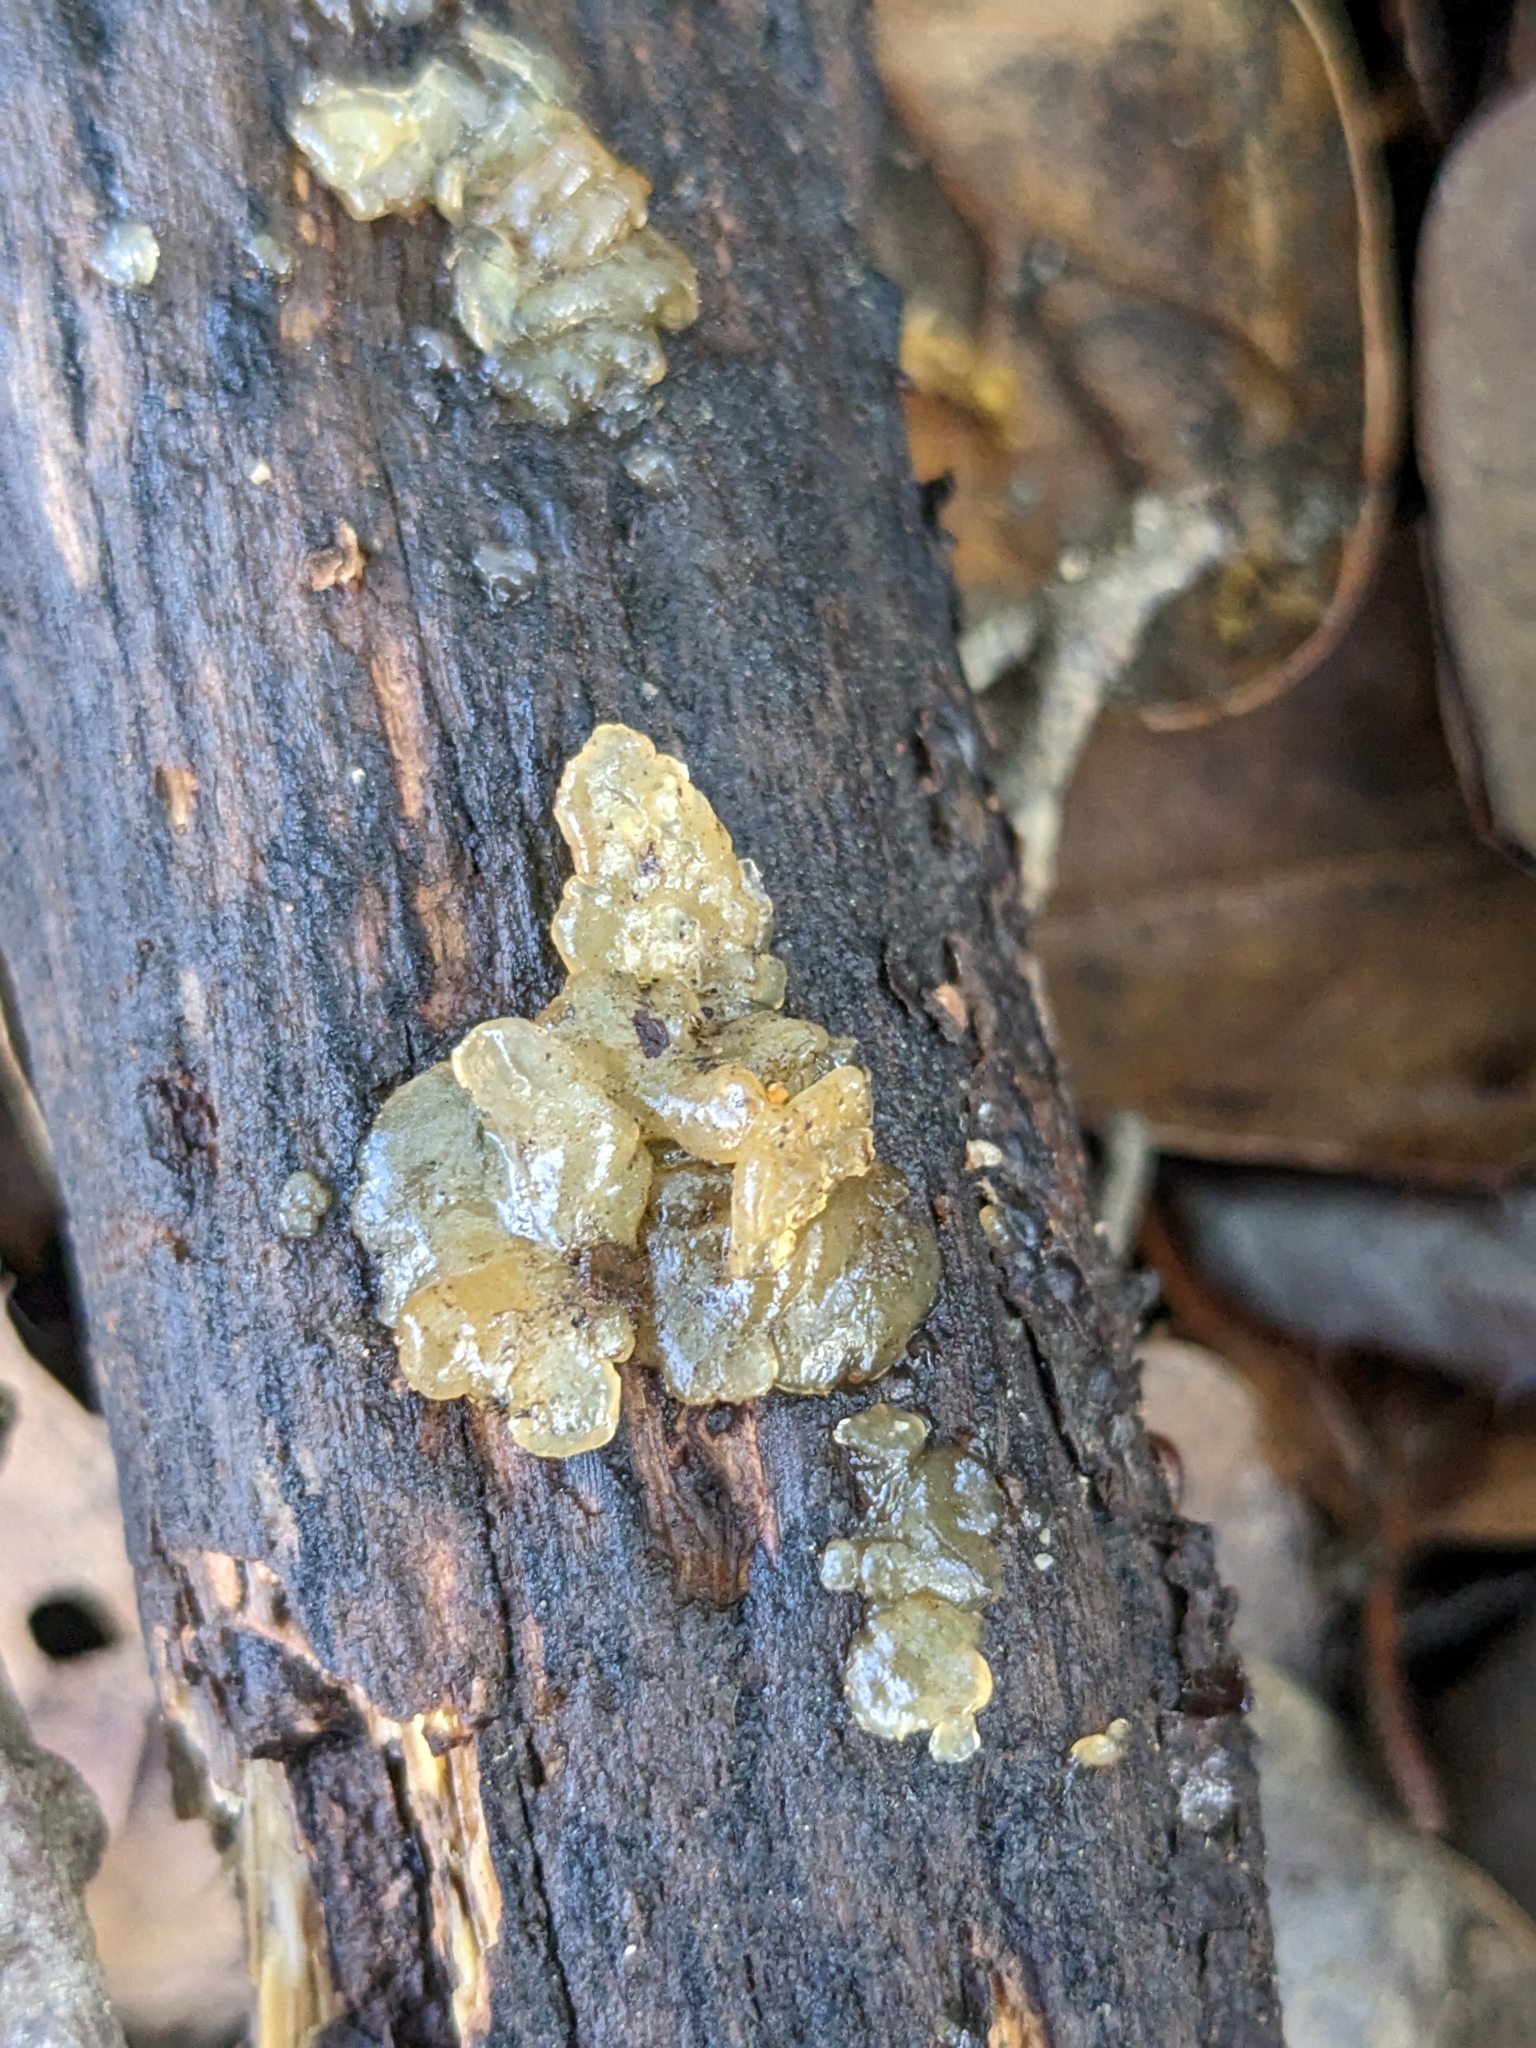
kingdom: Fungi
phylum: Basidiomycota
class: Agaricomycetes
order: Auriculariales
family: Hyaloriaceae
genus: Myxarium
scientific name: Myxarium nucleatum
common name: Crystal brain fungus
